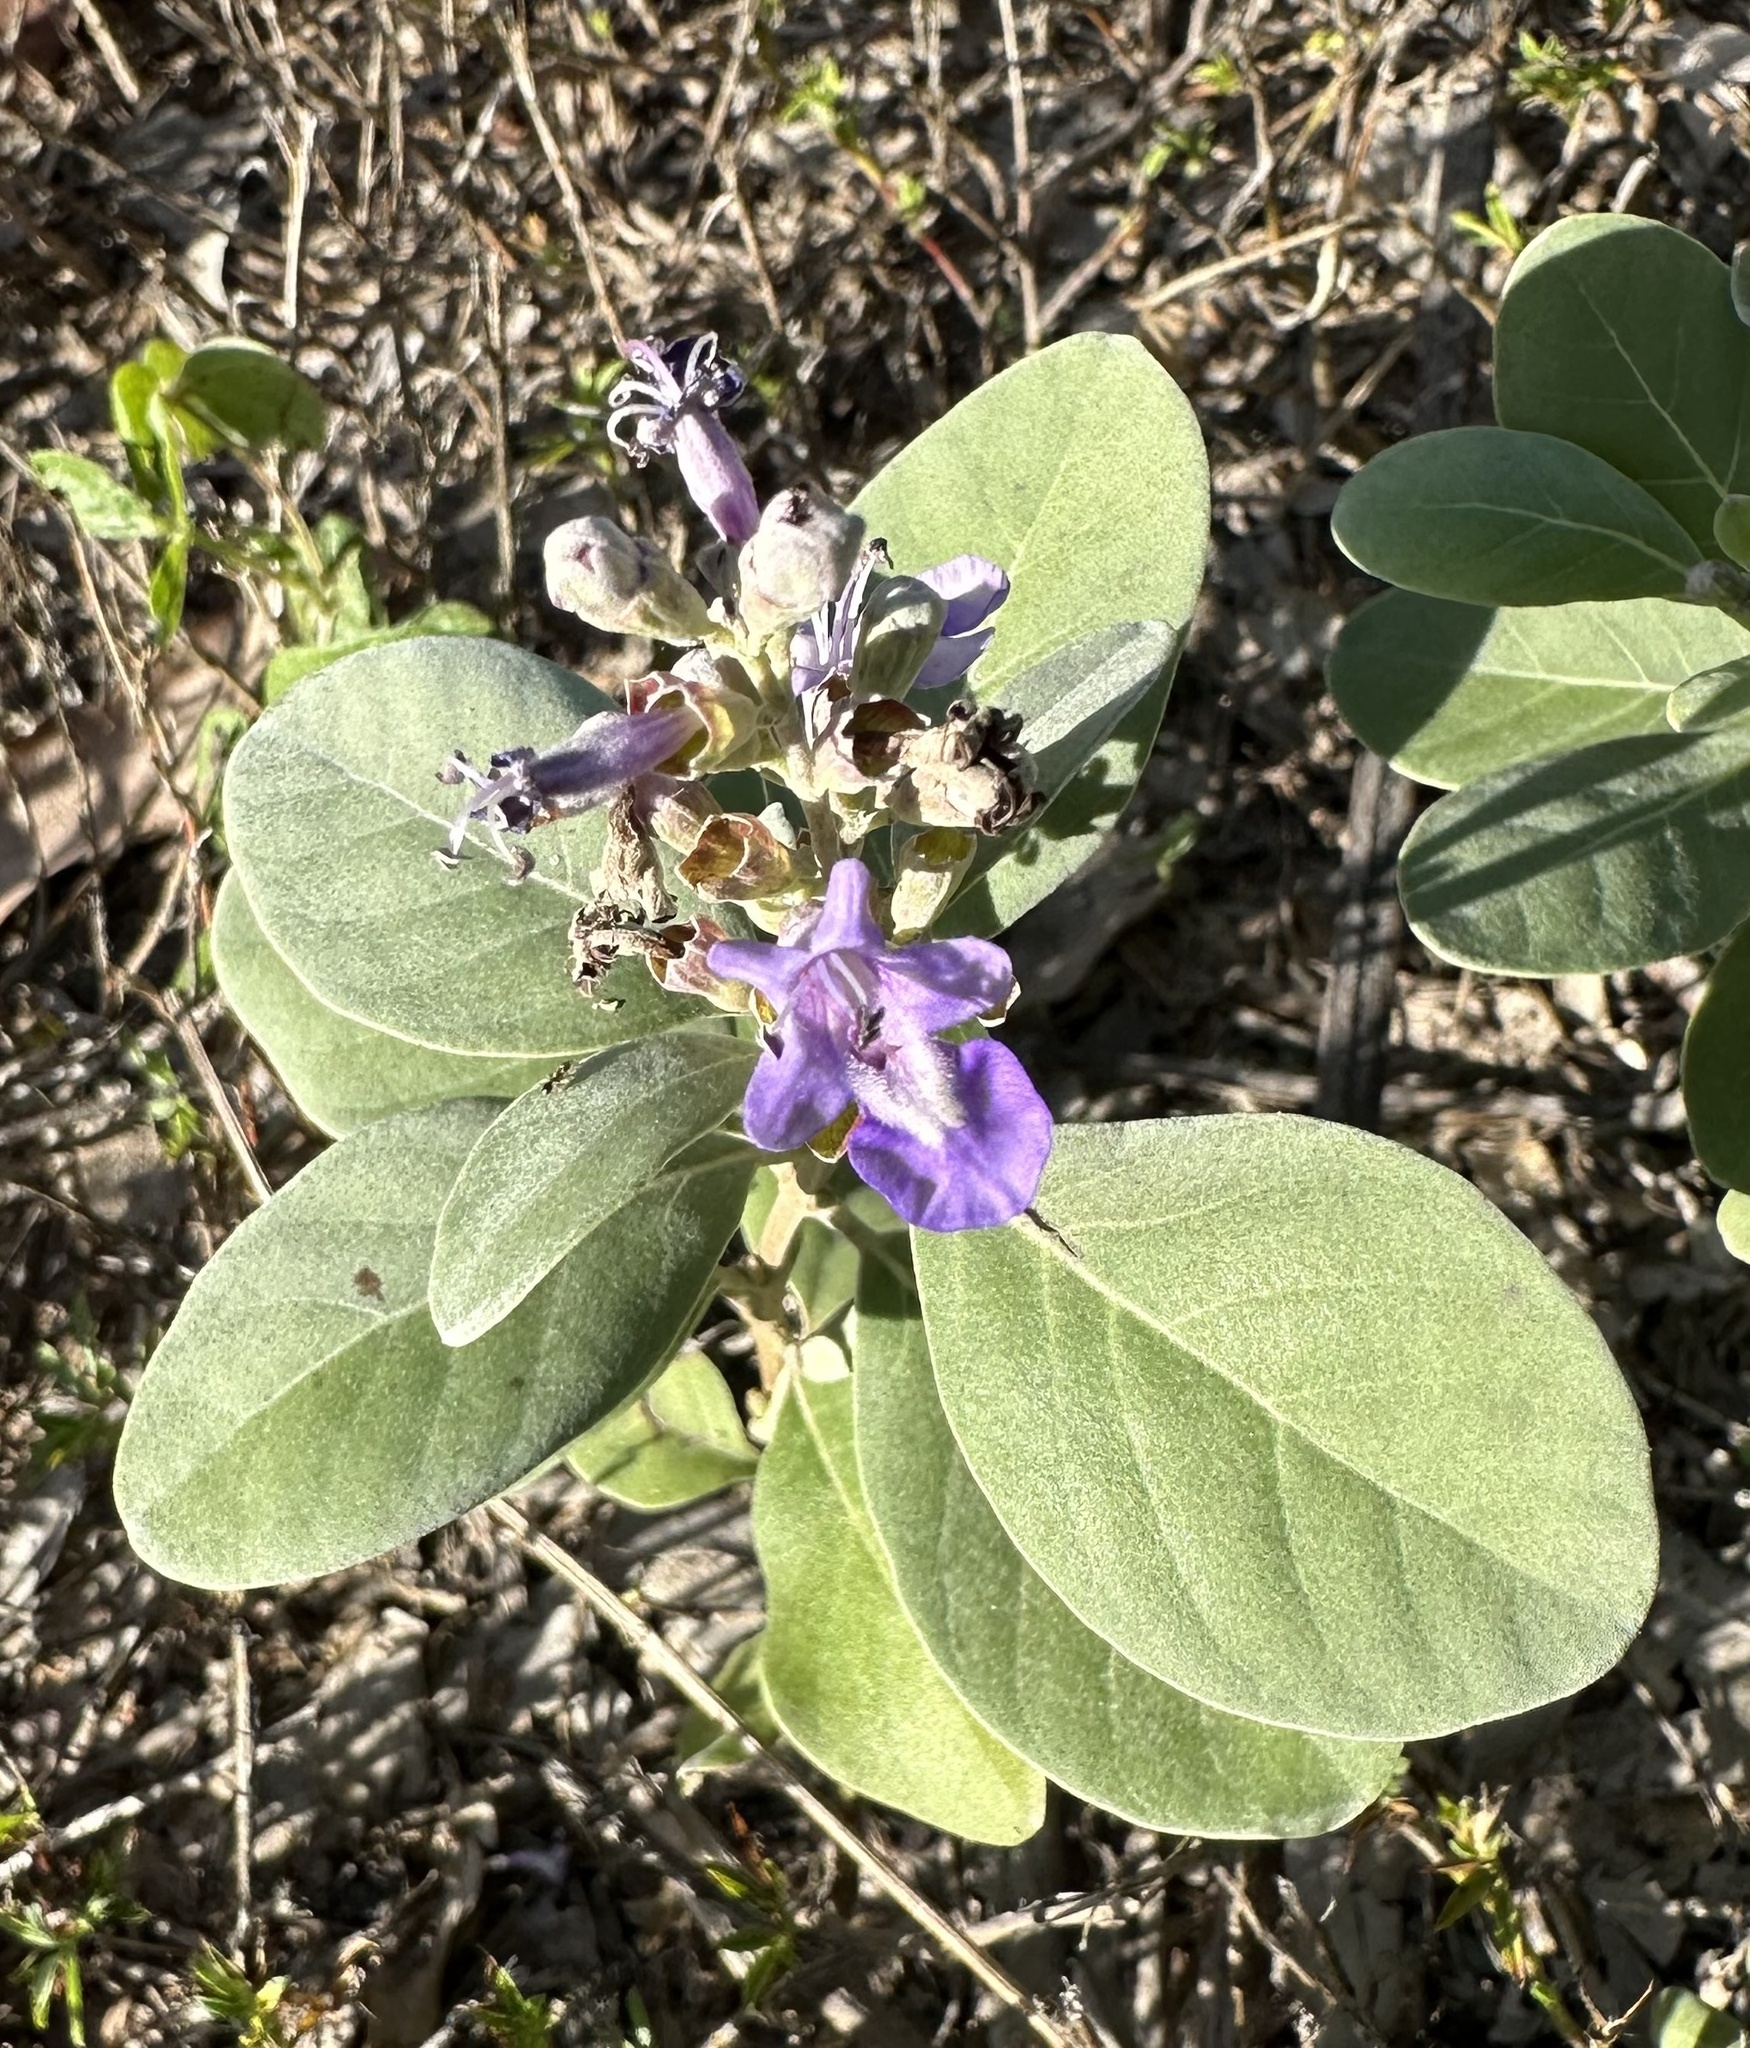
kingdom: Plantae
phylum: Tracheophyta
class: Magnoliopsida
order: Lamiales
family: Lamiaceae
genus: Vitex
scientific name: Vitex rotundifolia
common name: Beach vitex
